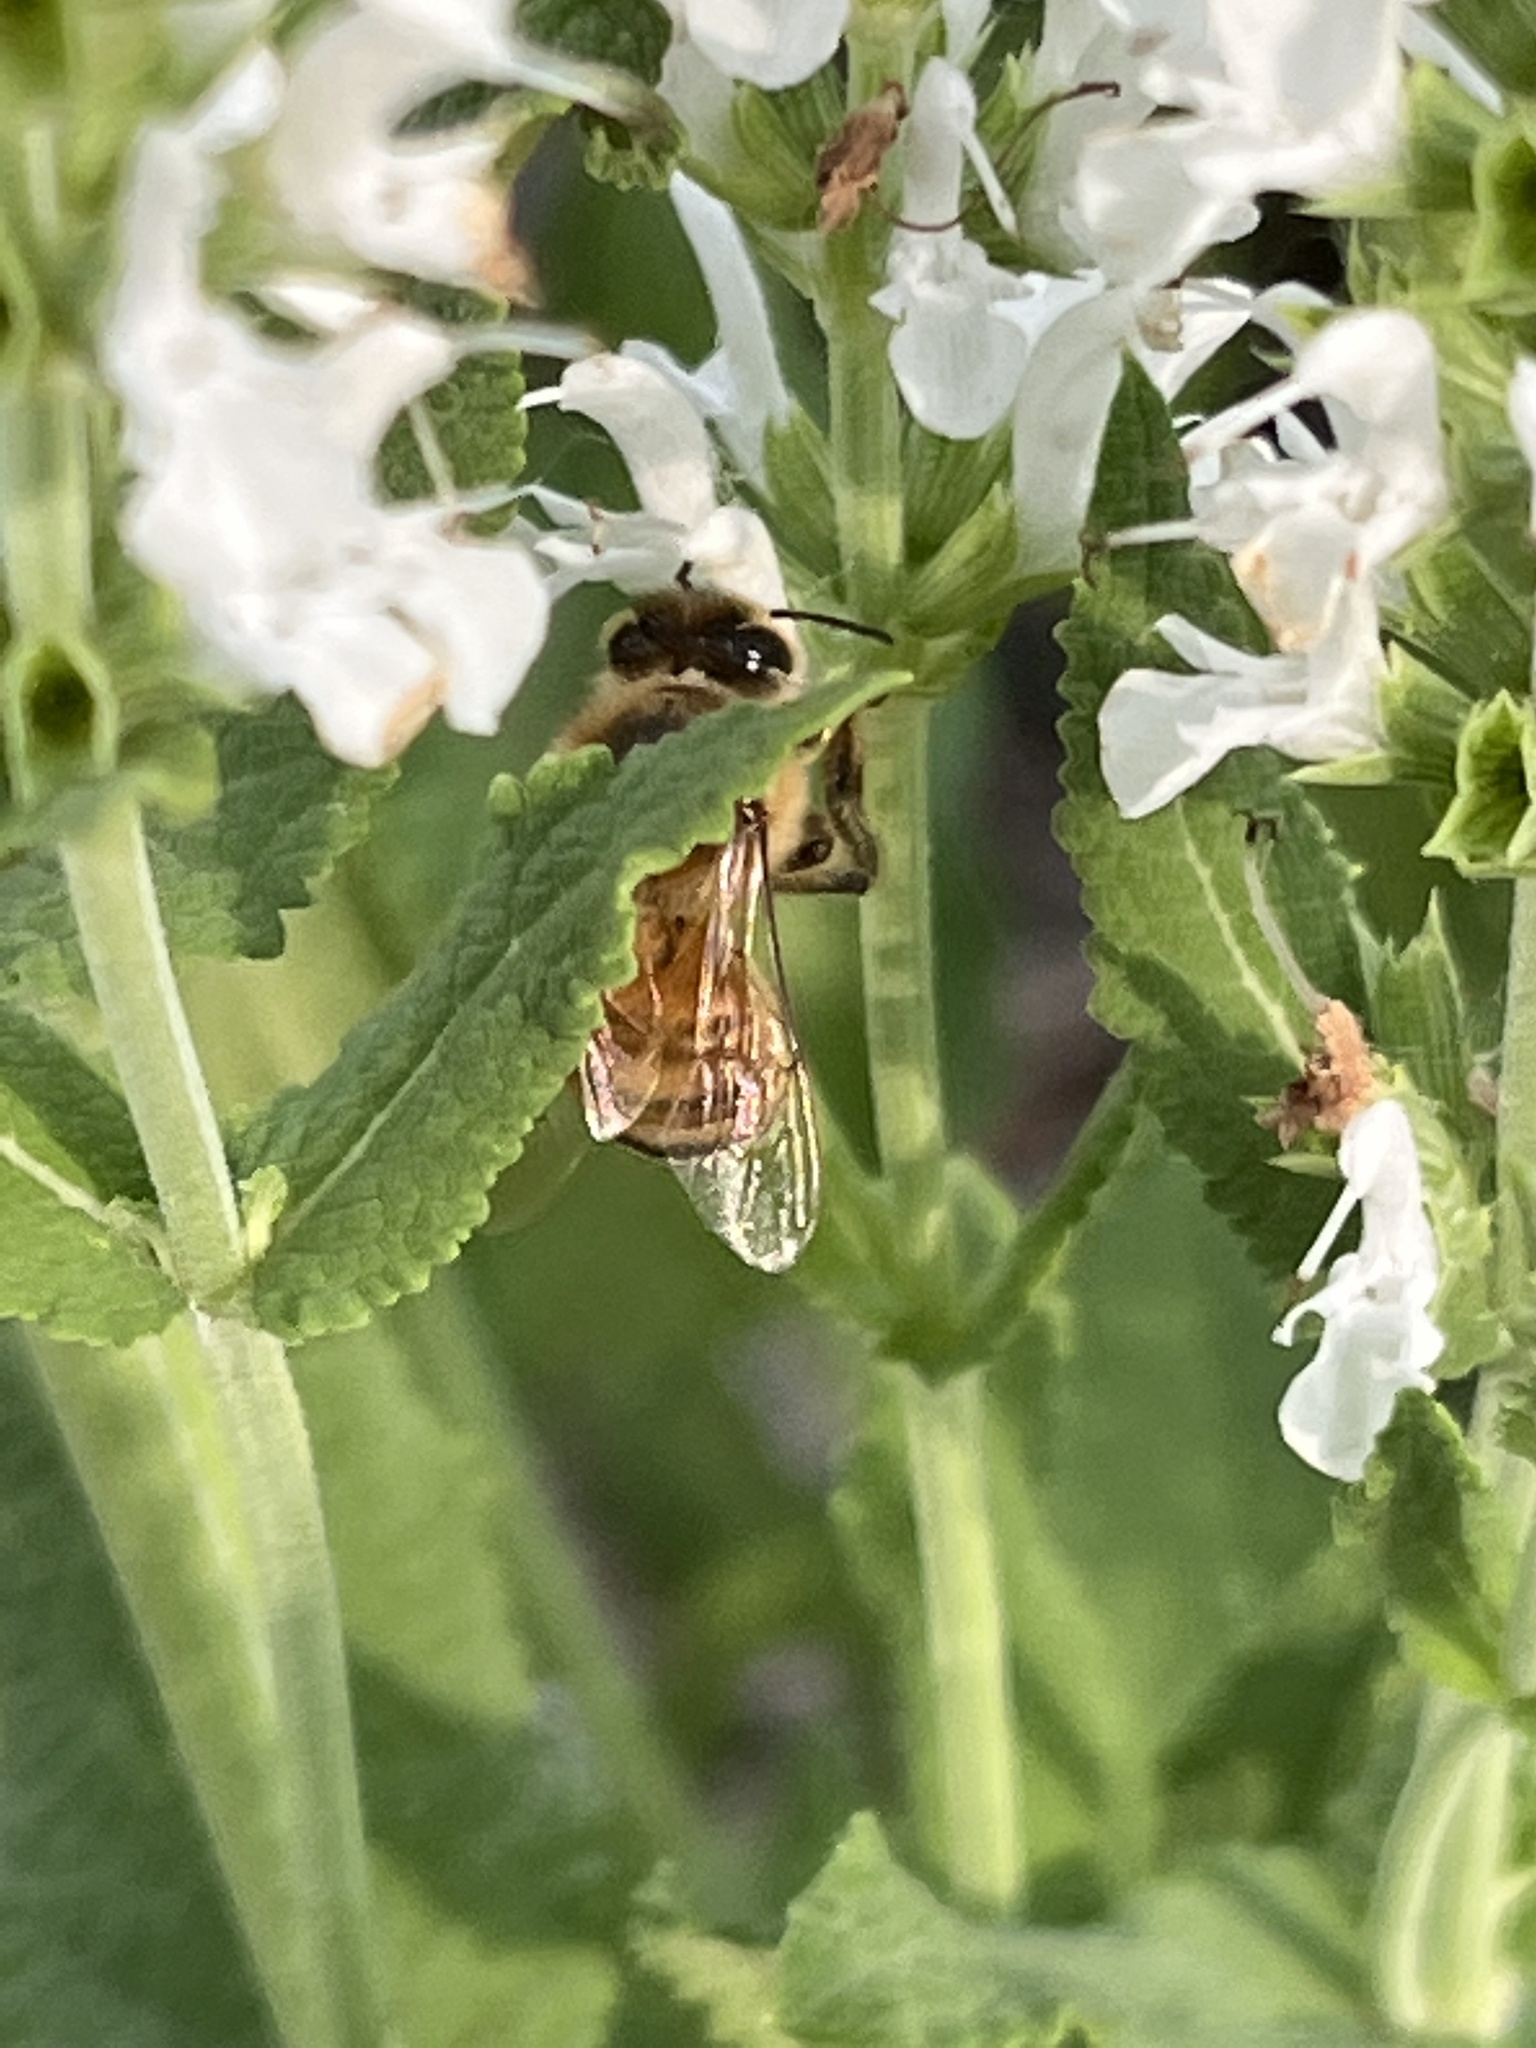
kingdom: Animalia
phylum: Arthropoda
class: Insecta
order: Hymenoptera
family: Apidae
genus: Apis
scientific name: Apis mellifera
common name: Honey bee
